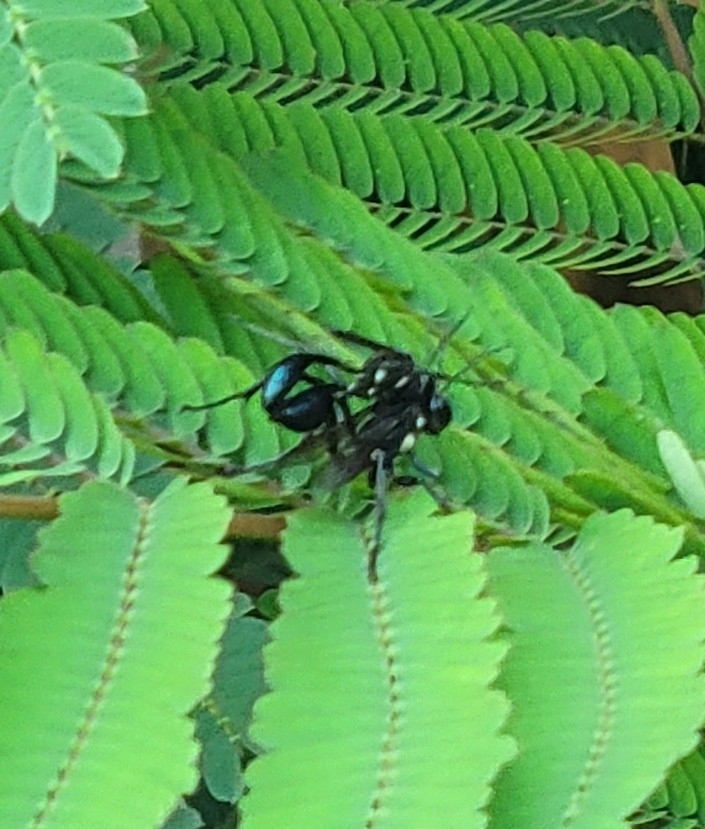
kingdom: Animalia
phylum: Arthropoda
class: Insecta
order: Hymenoptera
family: Sphecidae
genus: Eremnophila
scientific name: Eremnophila aureonotata
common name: Gold-marked thread-waisted wasp
